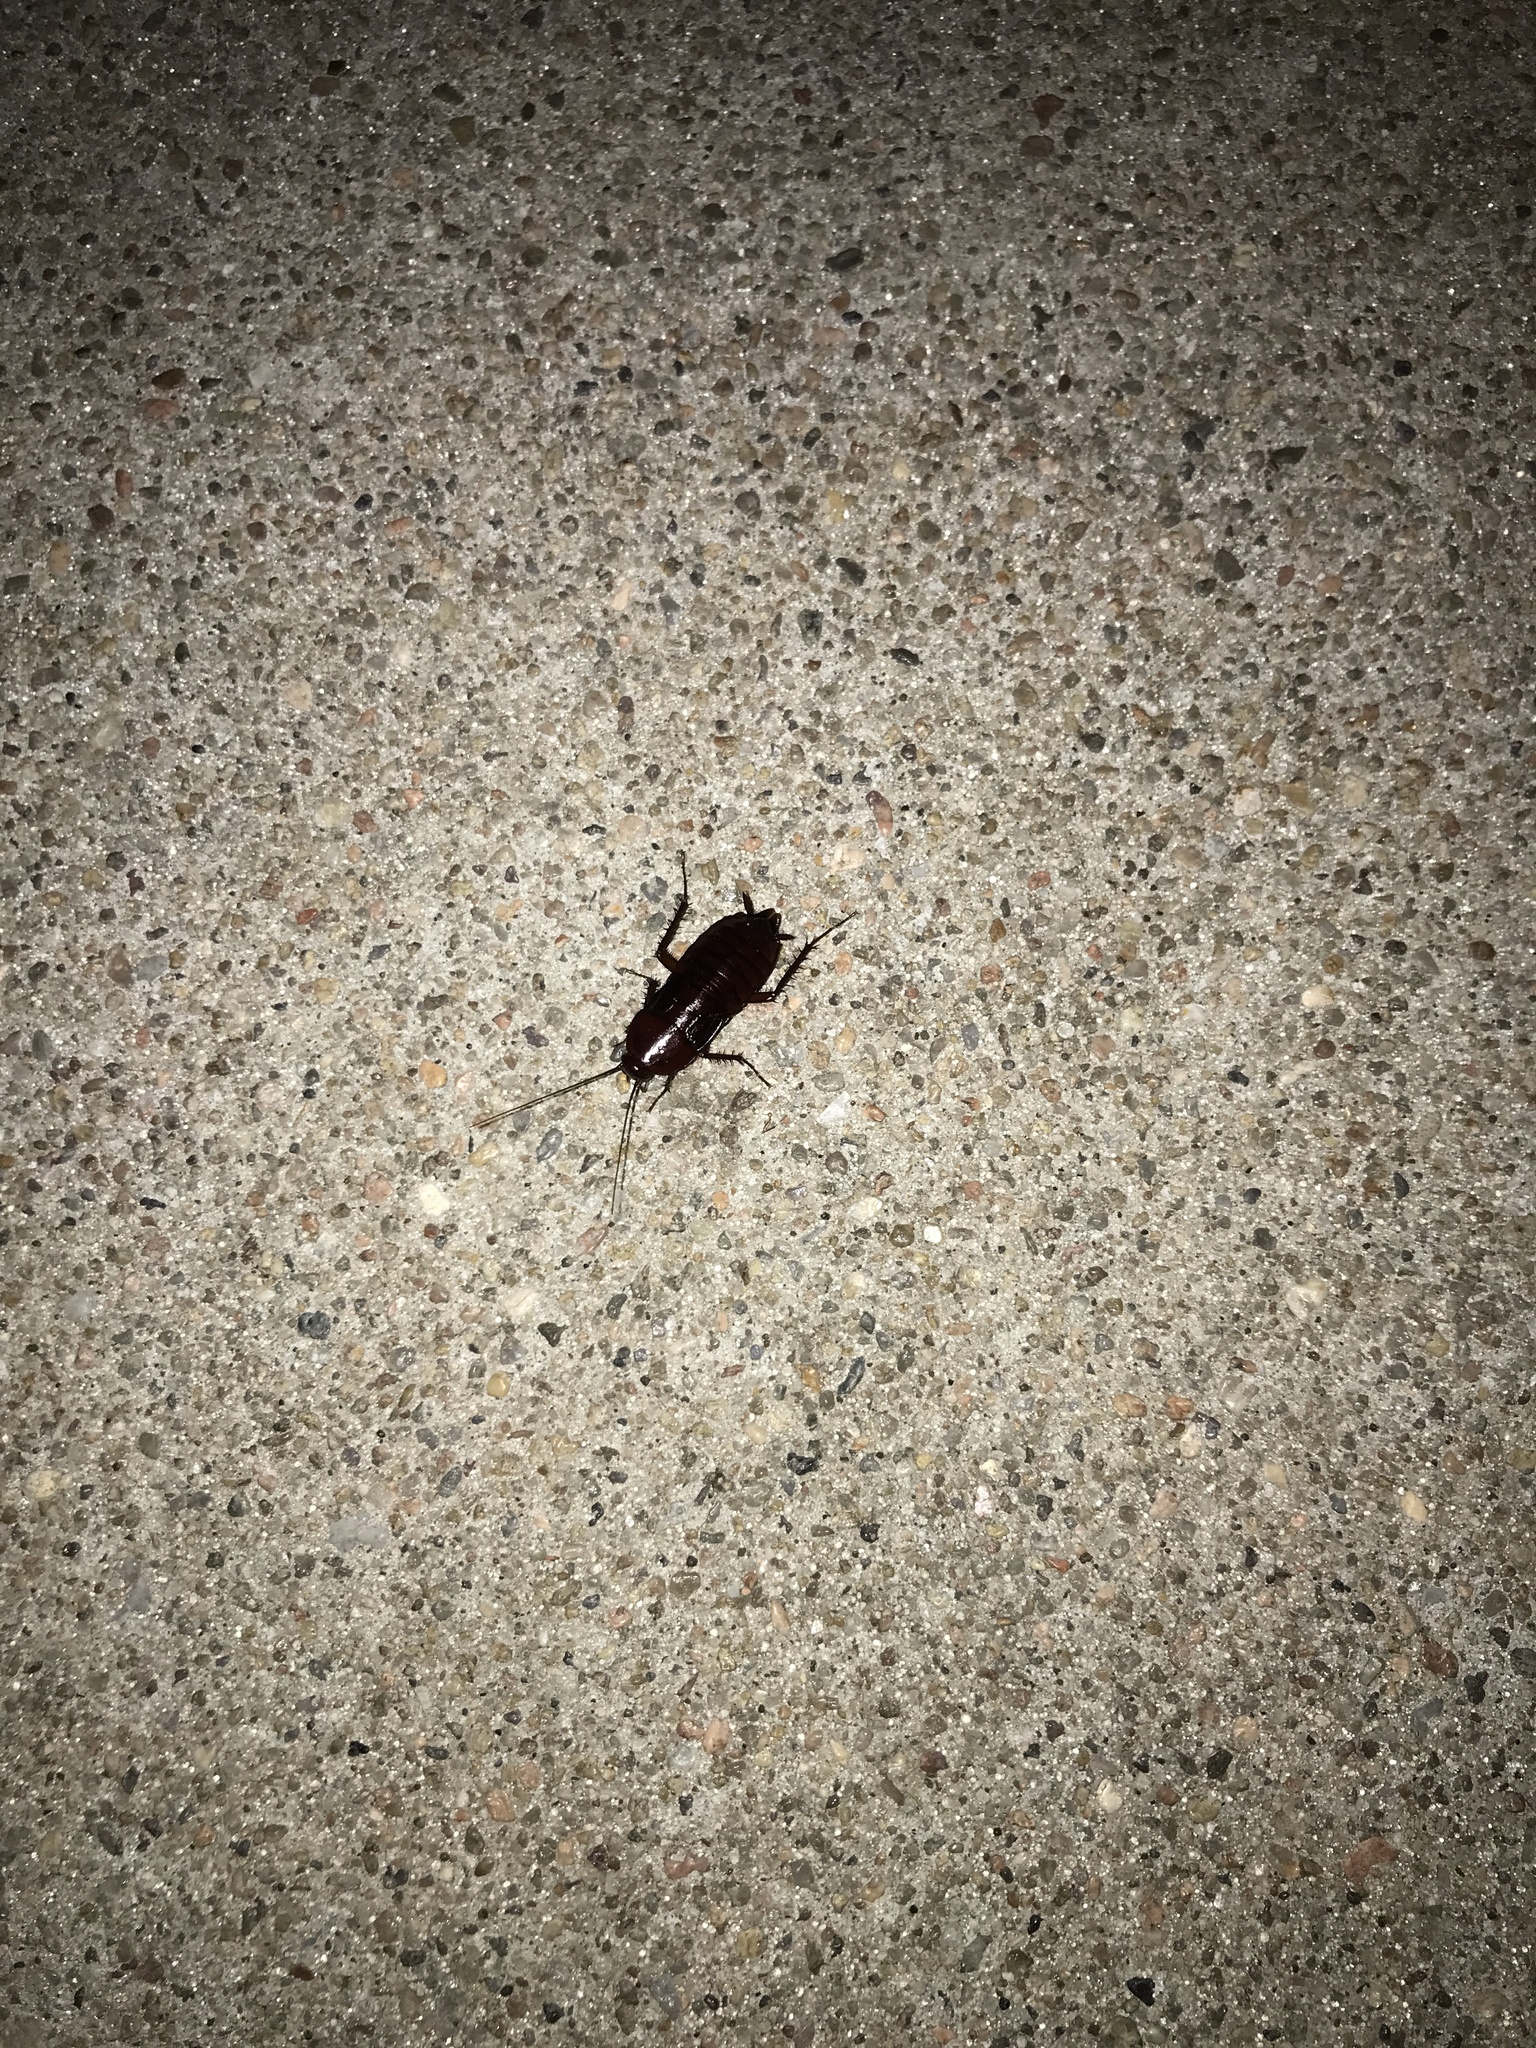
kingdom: Animalia
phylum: Arthropoda
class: Insecta
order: Blattodea
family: Blattidae
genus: Blatta
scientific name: Blatta orientalis
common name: Oriental cockroach
